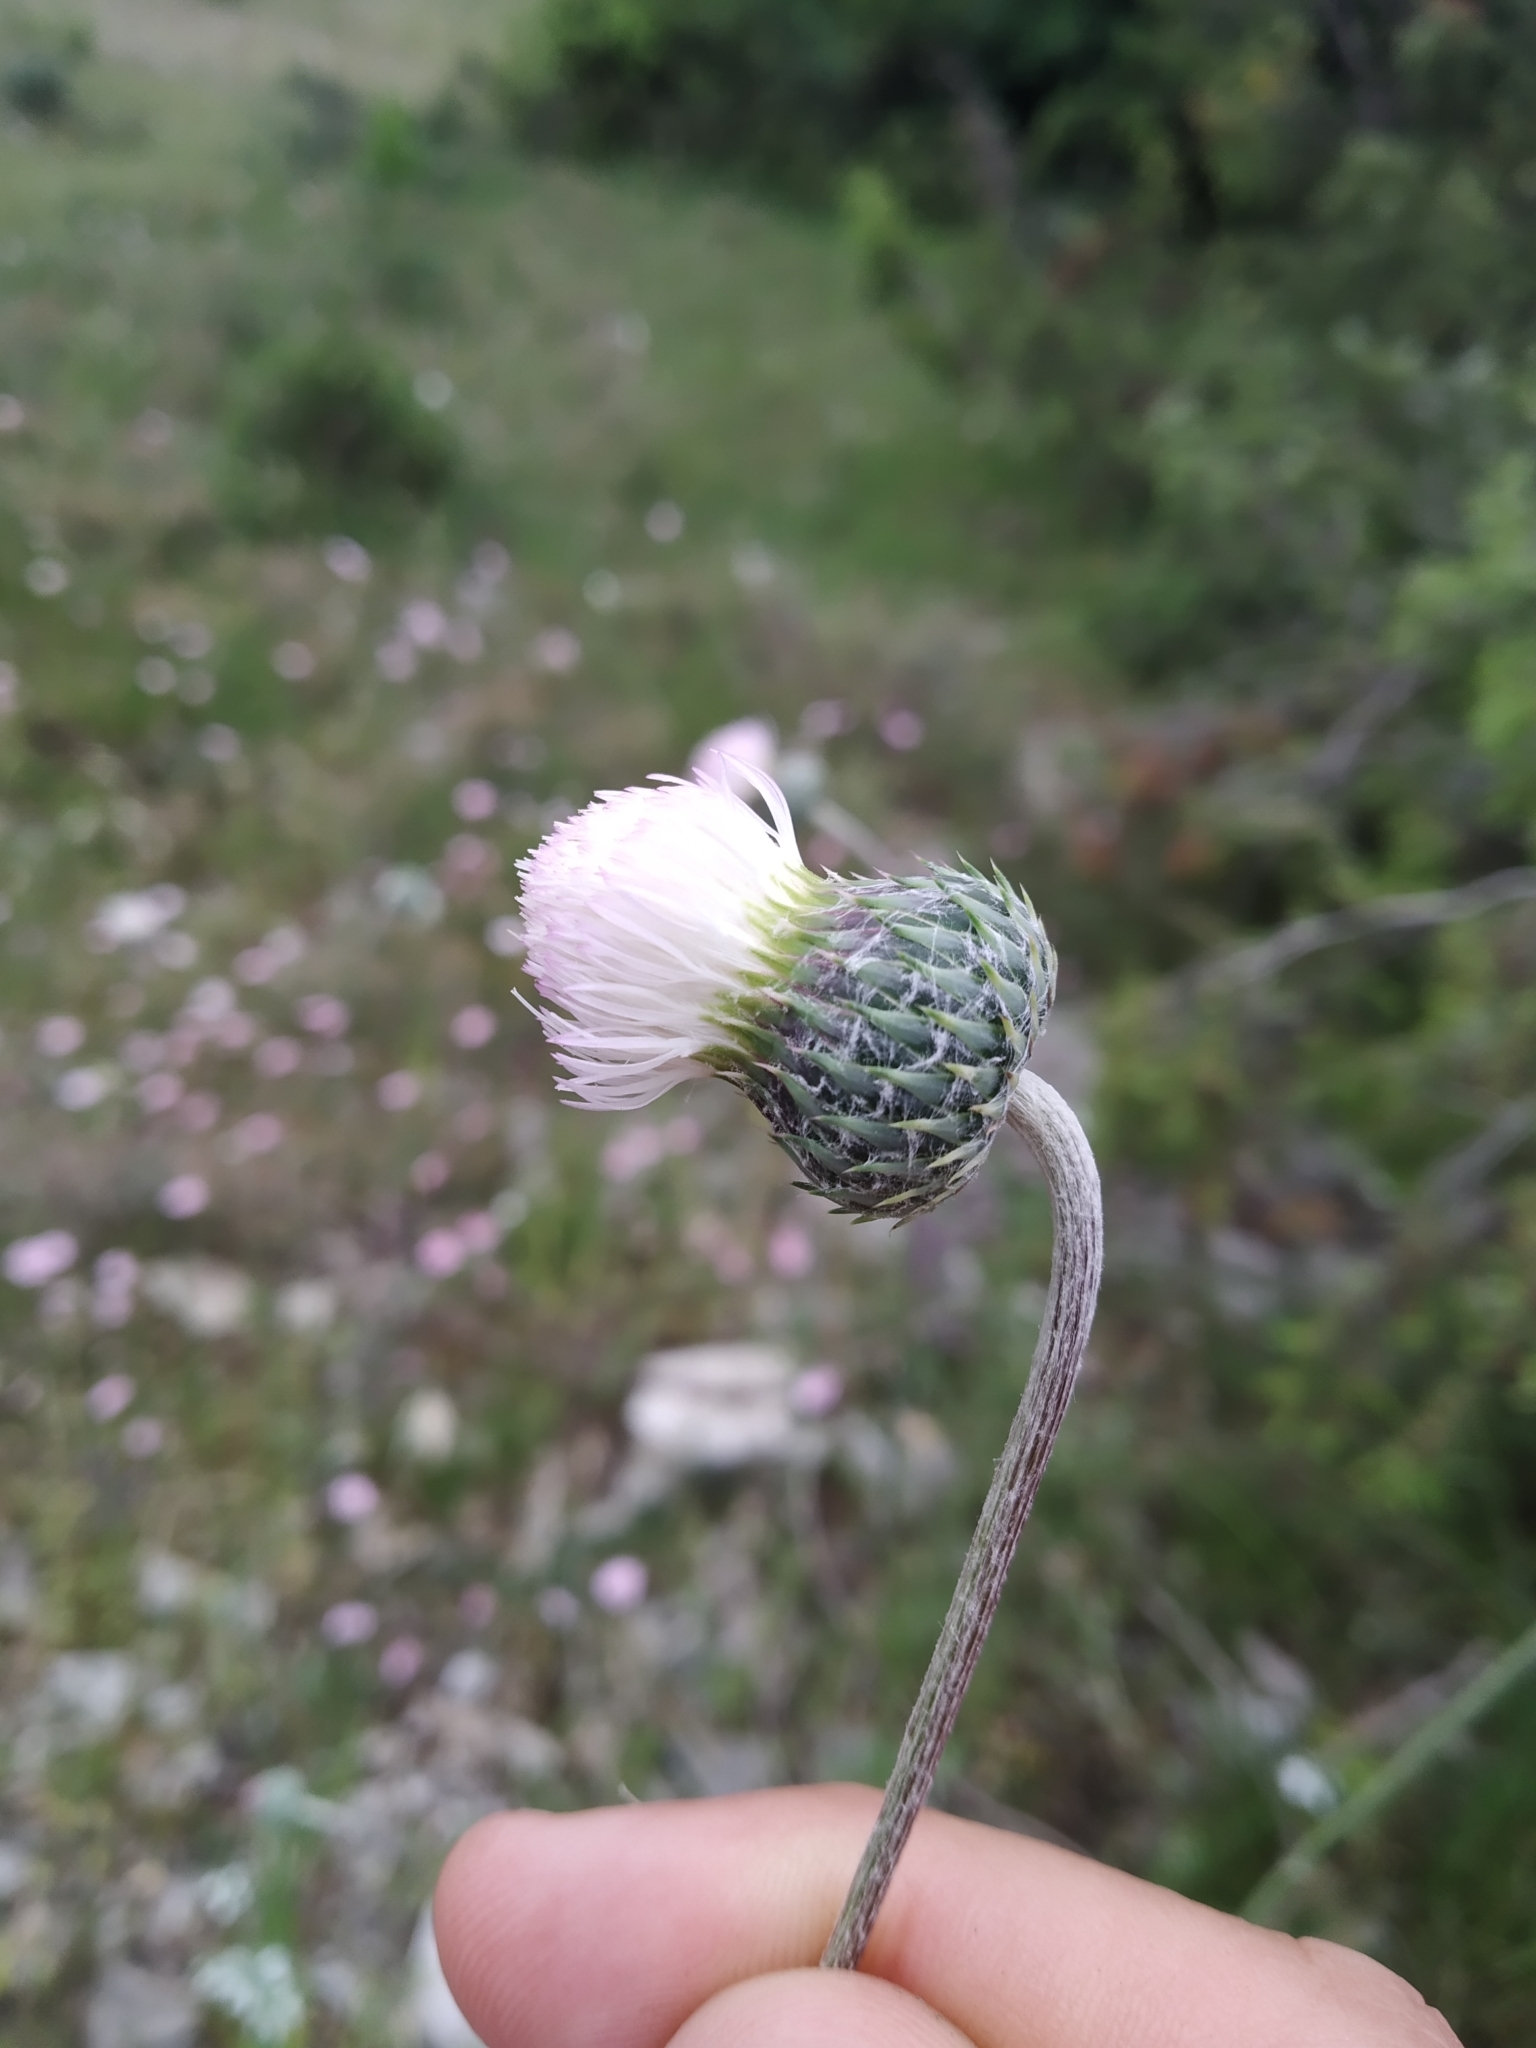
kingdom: Plantae
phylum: Tracheophyta
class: Magnoliopsida
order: Asterales
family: Asteraceae
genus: Tyrimnus
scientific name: Tyrimnus leucographus
